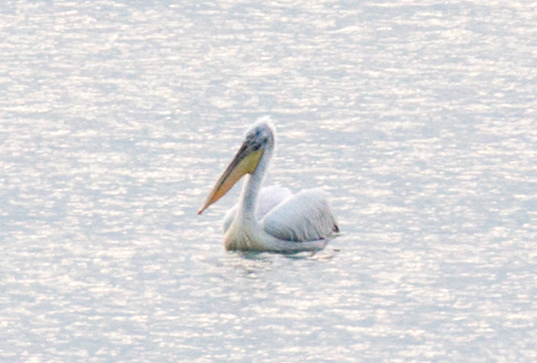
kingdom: Animalia
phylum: Chordata
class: Aves
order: Pelecaniformes
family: Pelecanidae
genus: Pelecanus
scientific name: Pelecanus crispus
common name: Dalmatian pelican
